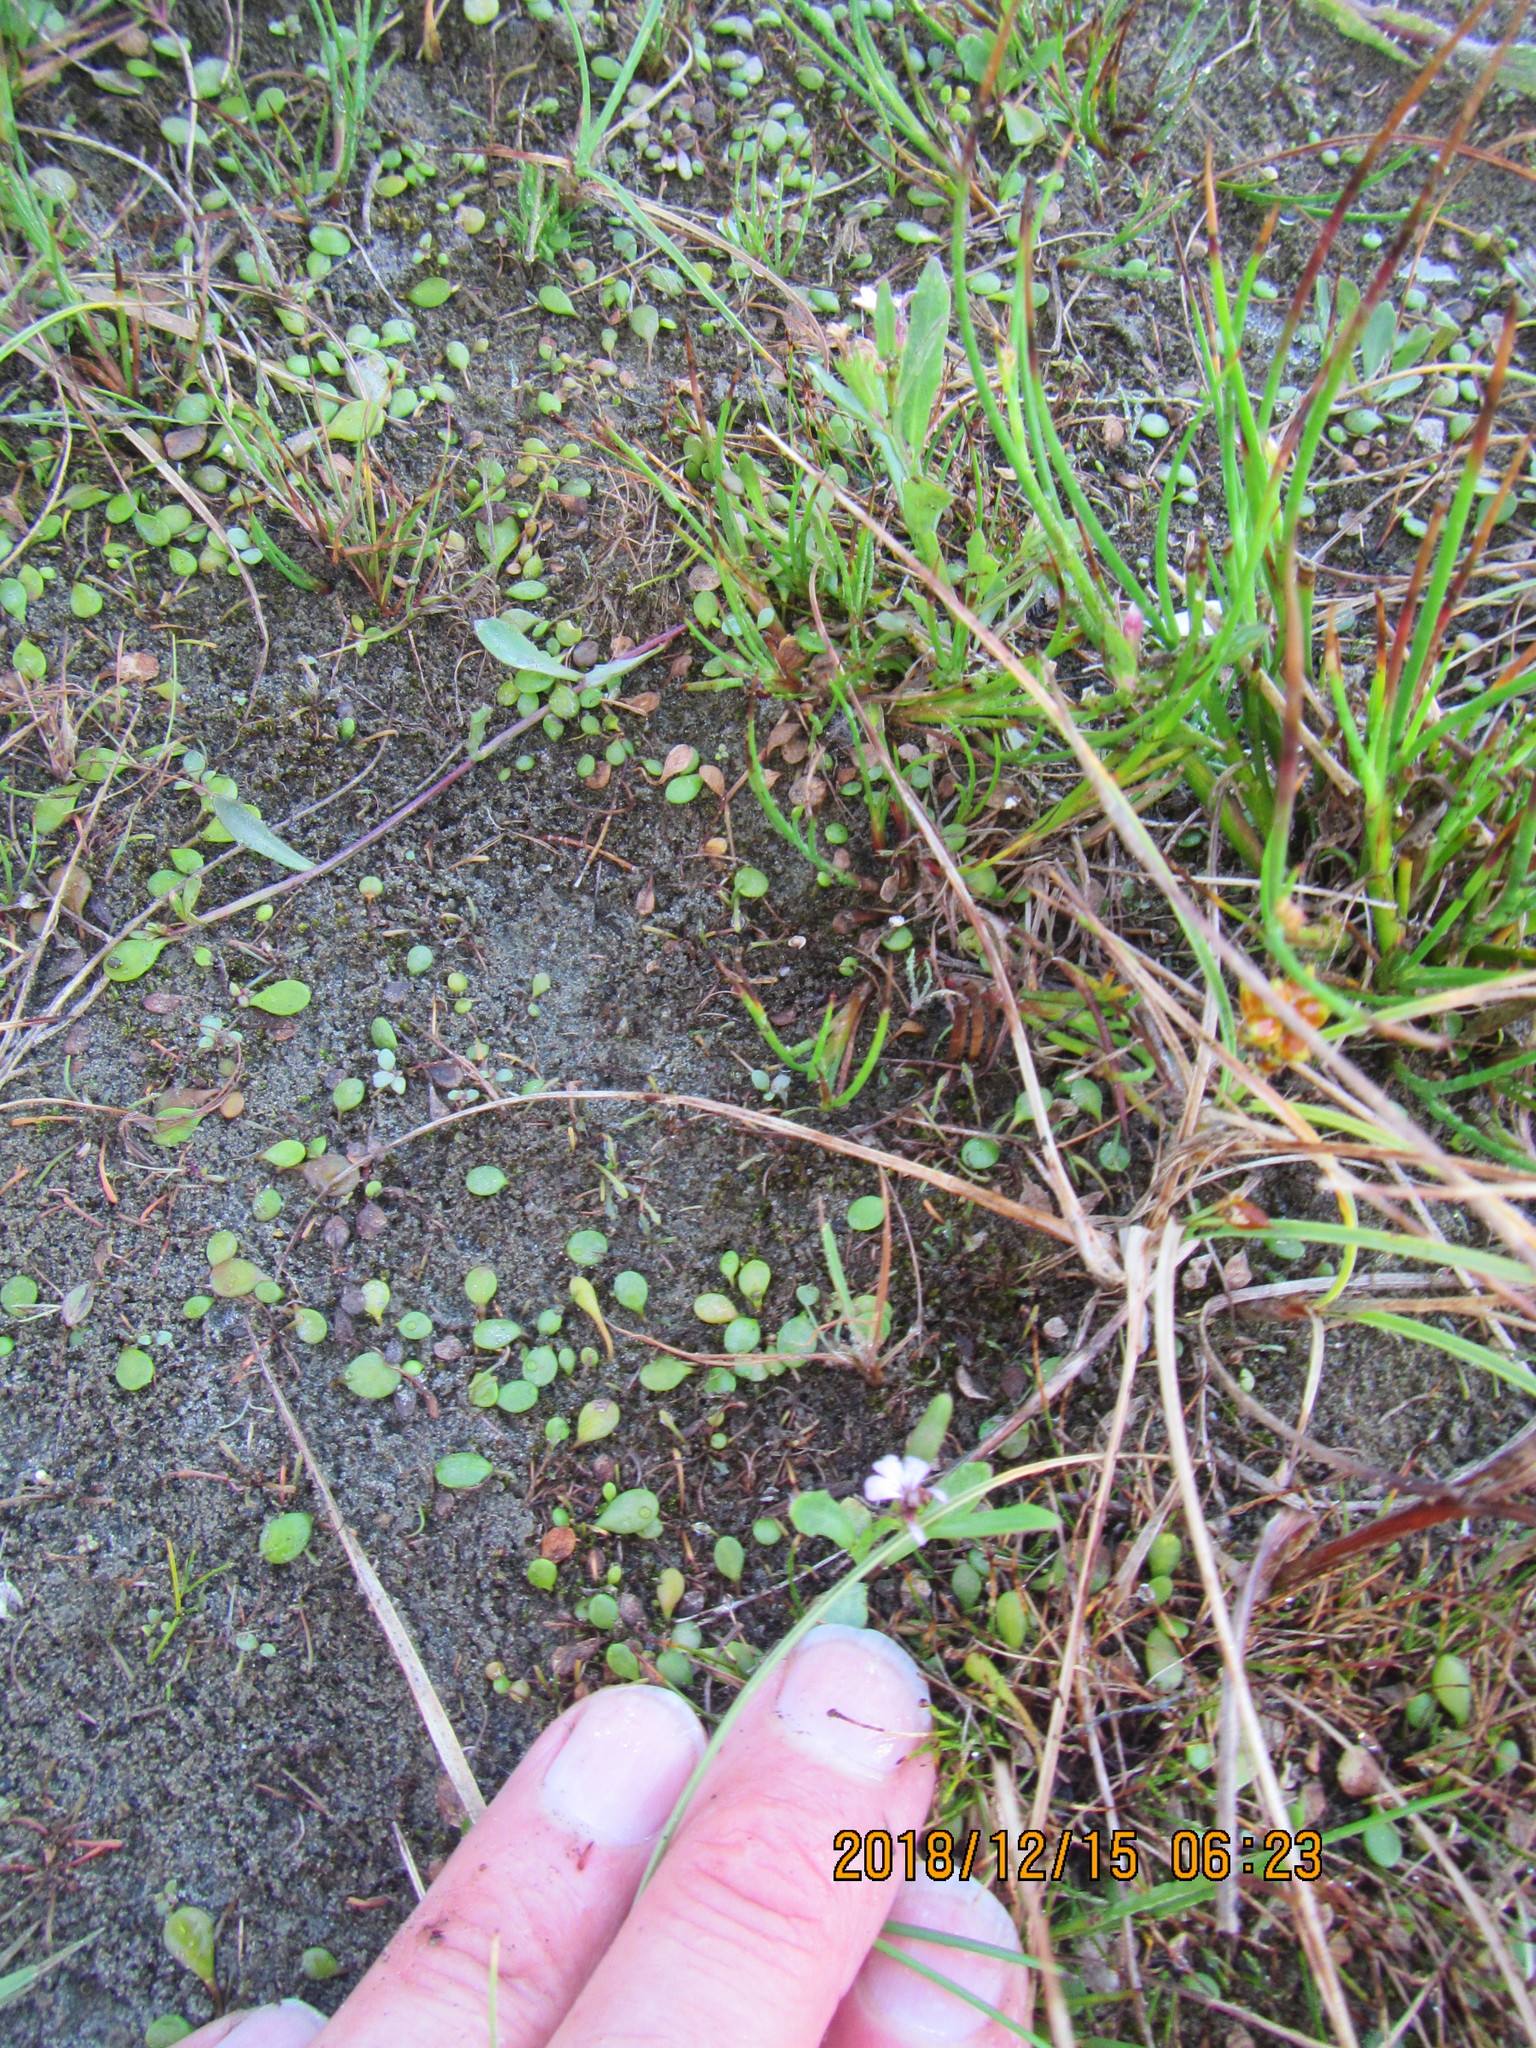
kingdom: Plantae
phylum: Tracheophyta
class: Magnoliopsida
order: Asterales
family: Campanulaceae
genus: Lobelia
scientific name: Lobelia anceps
